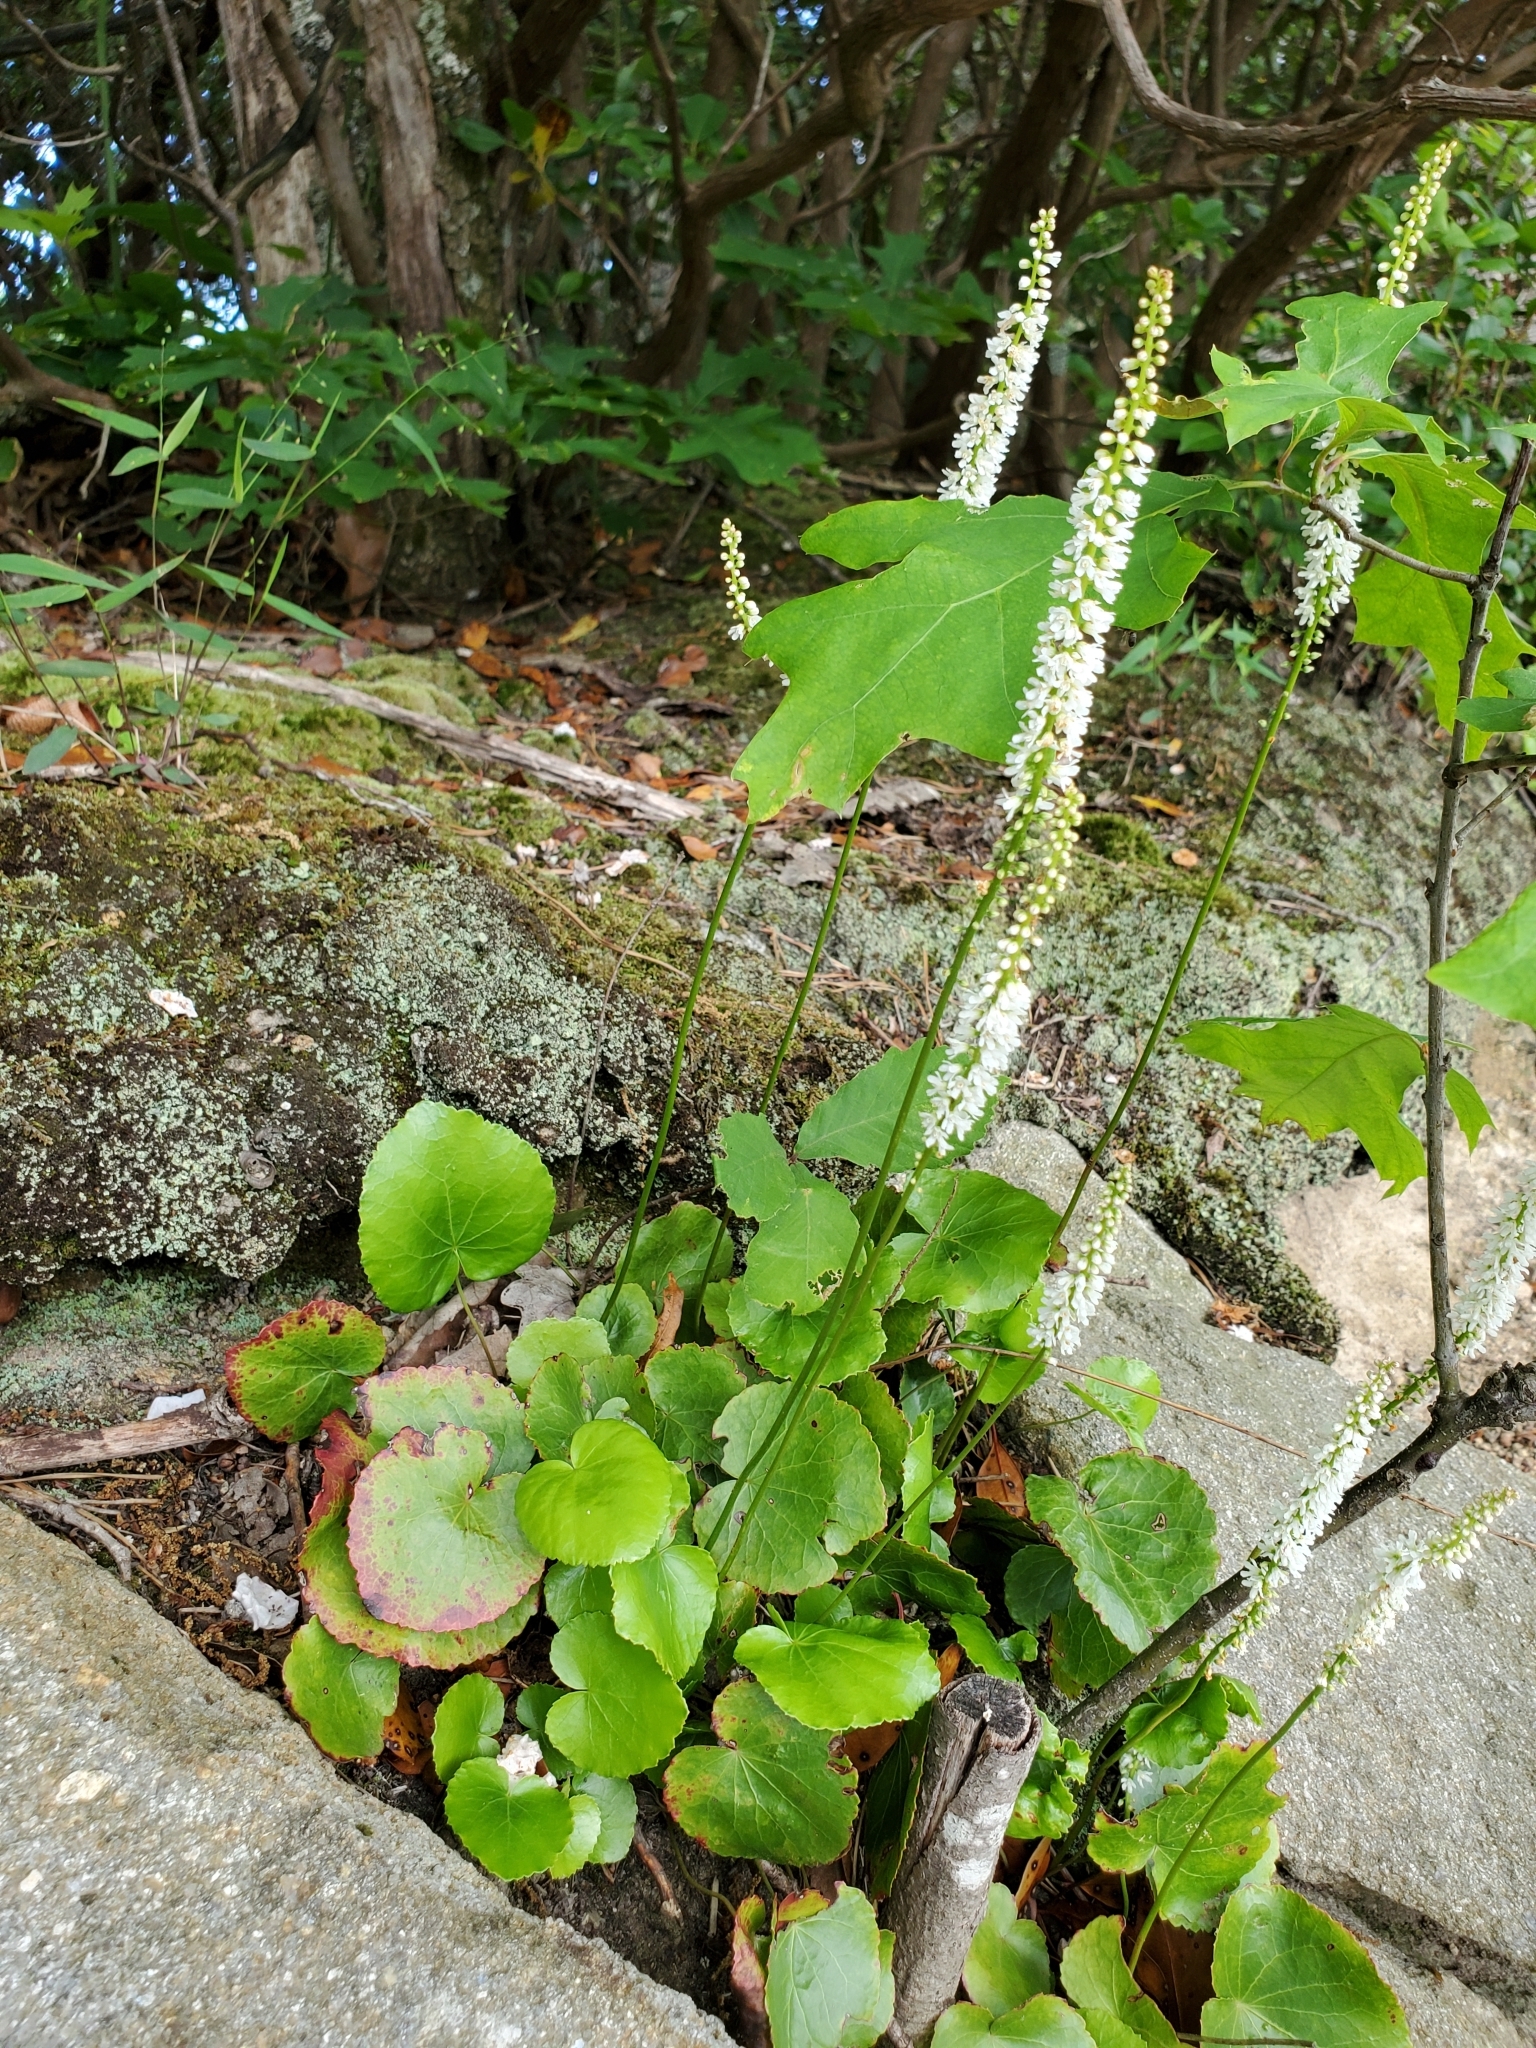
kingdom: Plantae
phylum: Tracheophyta
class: Magnoliopsida
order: Ericales
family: Diapensiaceae
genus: Galax
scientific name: Galax urceolata
